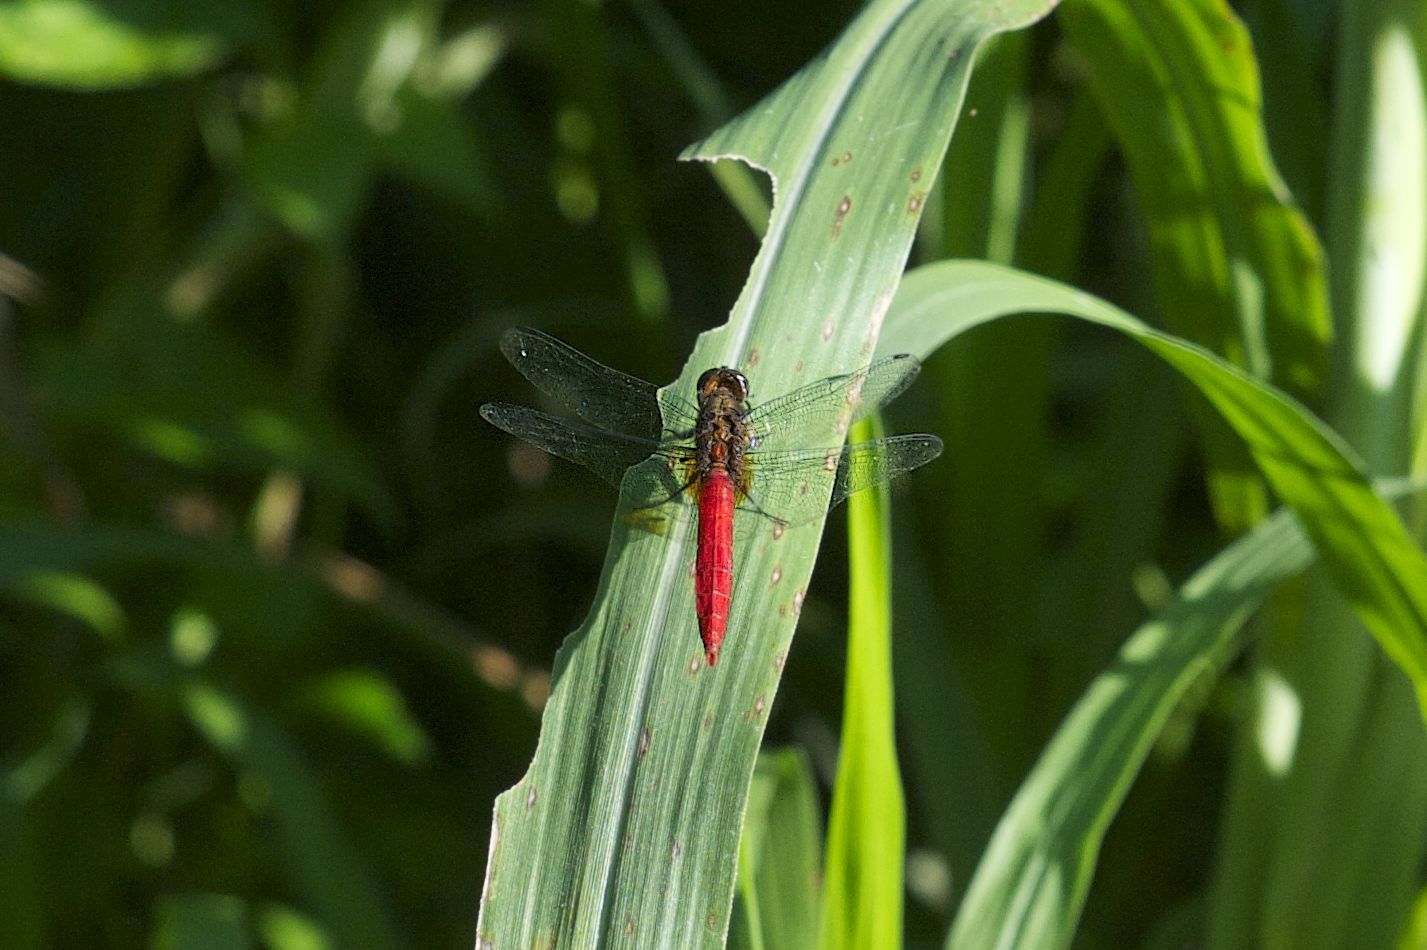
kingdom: Animalia
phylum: Arthropoda
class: Insecta
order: Odonata
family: Libellulidae
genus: Orthetrum
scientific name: Orthetrum chrysis
